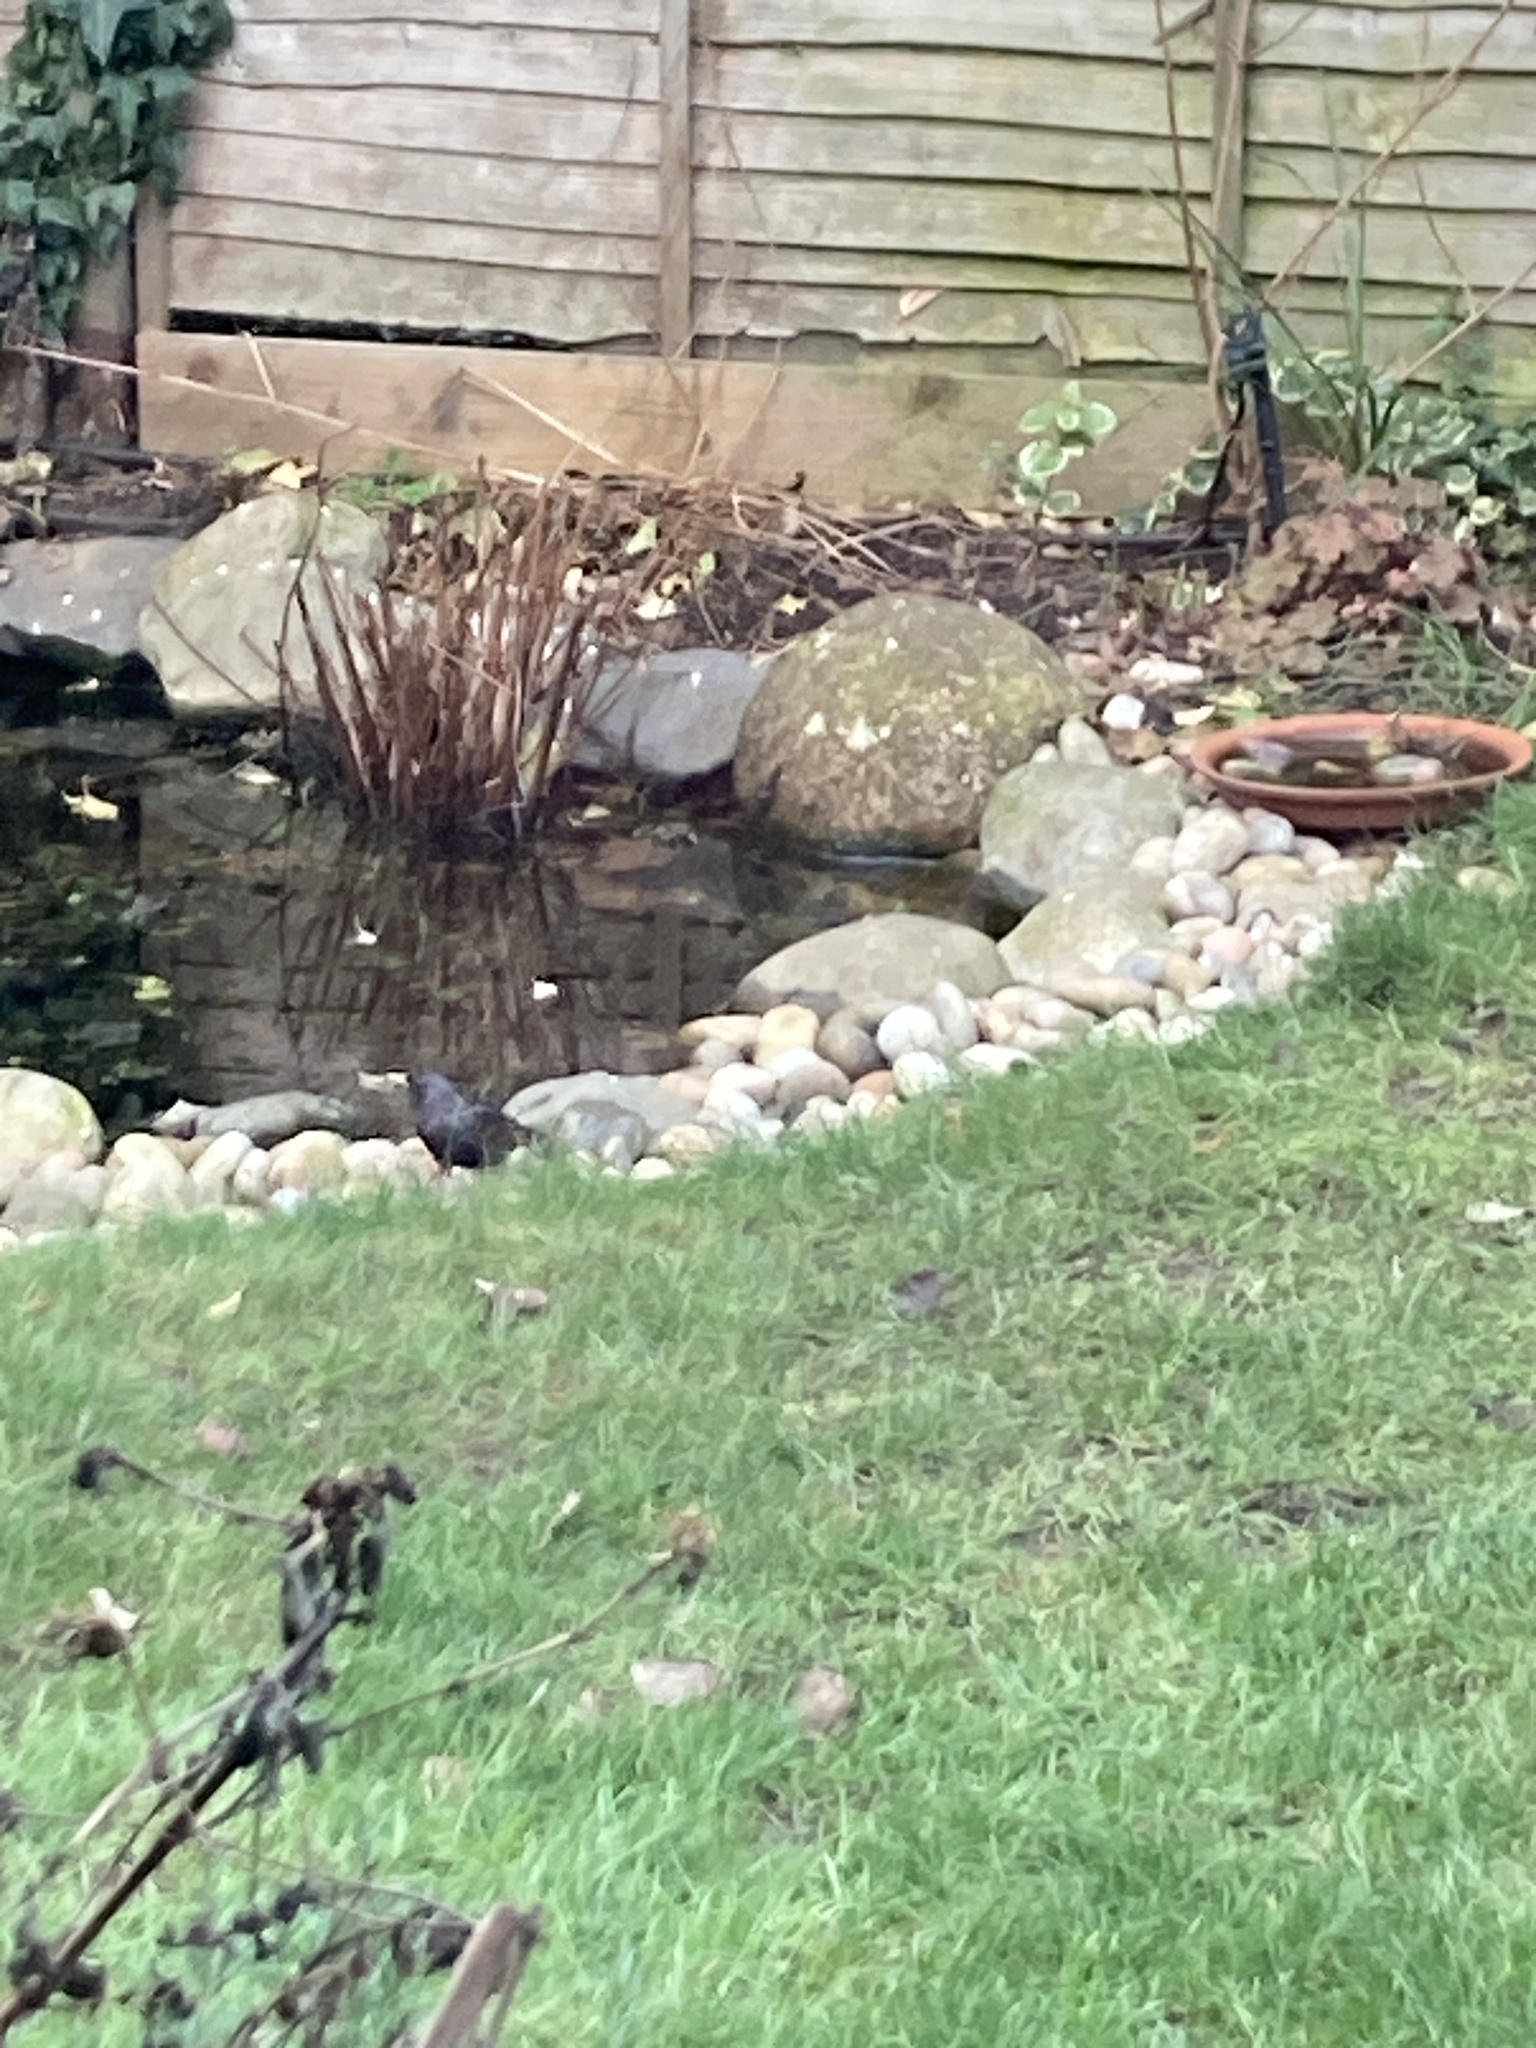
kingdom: Animalia
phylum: Chordata
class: Aves
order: Passeriformes
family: Sturnidae
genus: Sturnus
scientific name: Sturnus vulgaris
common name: Common starling
